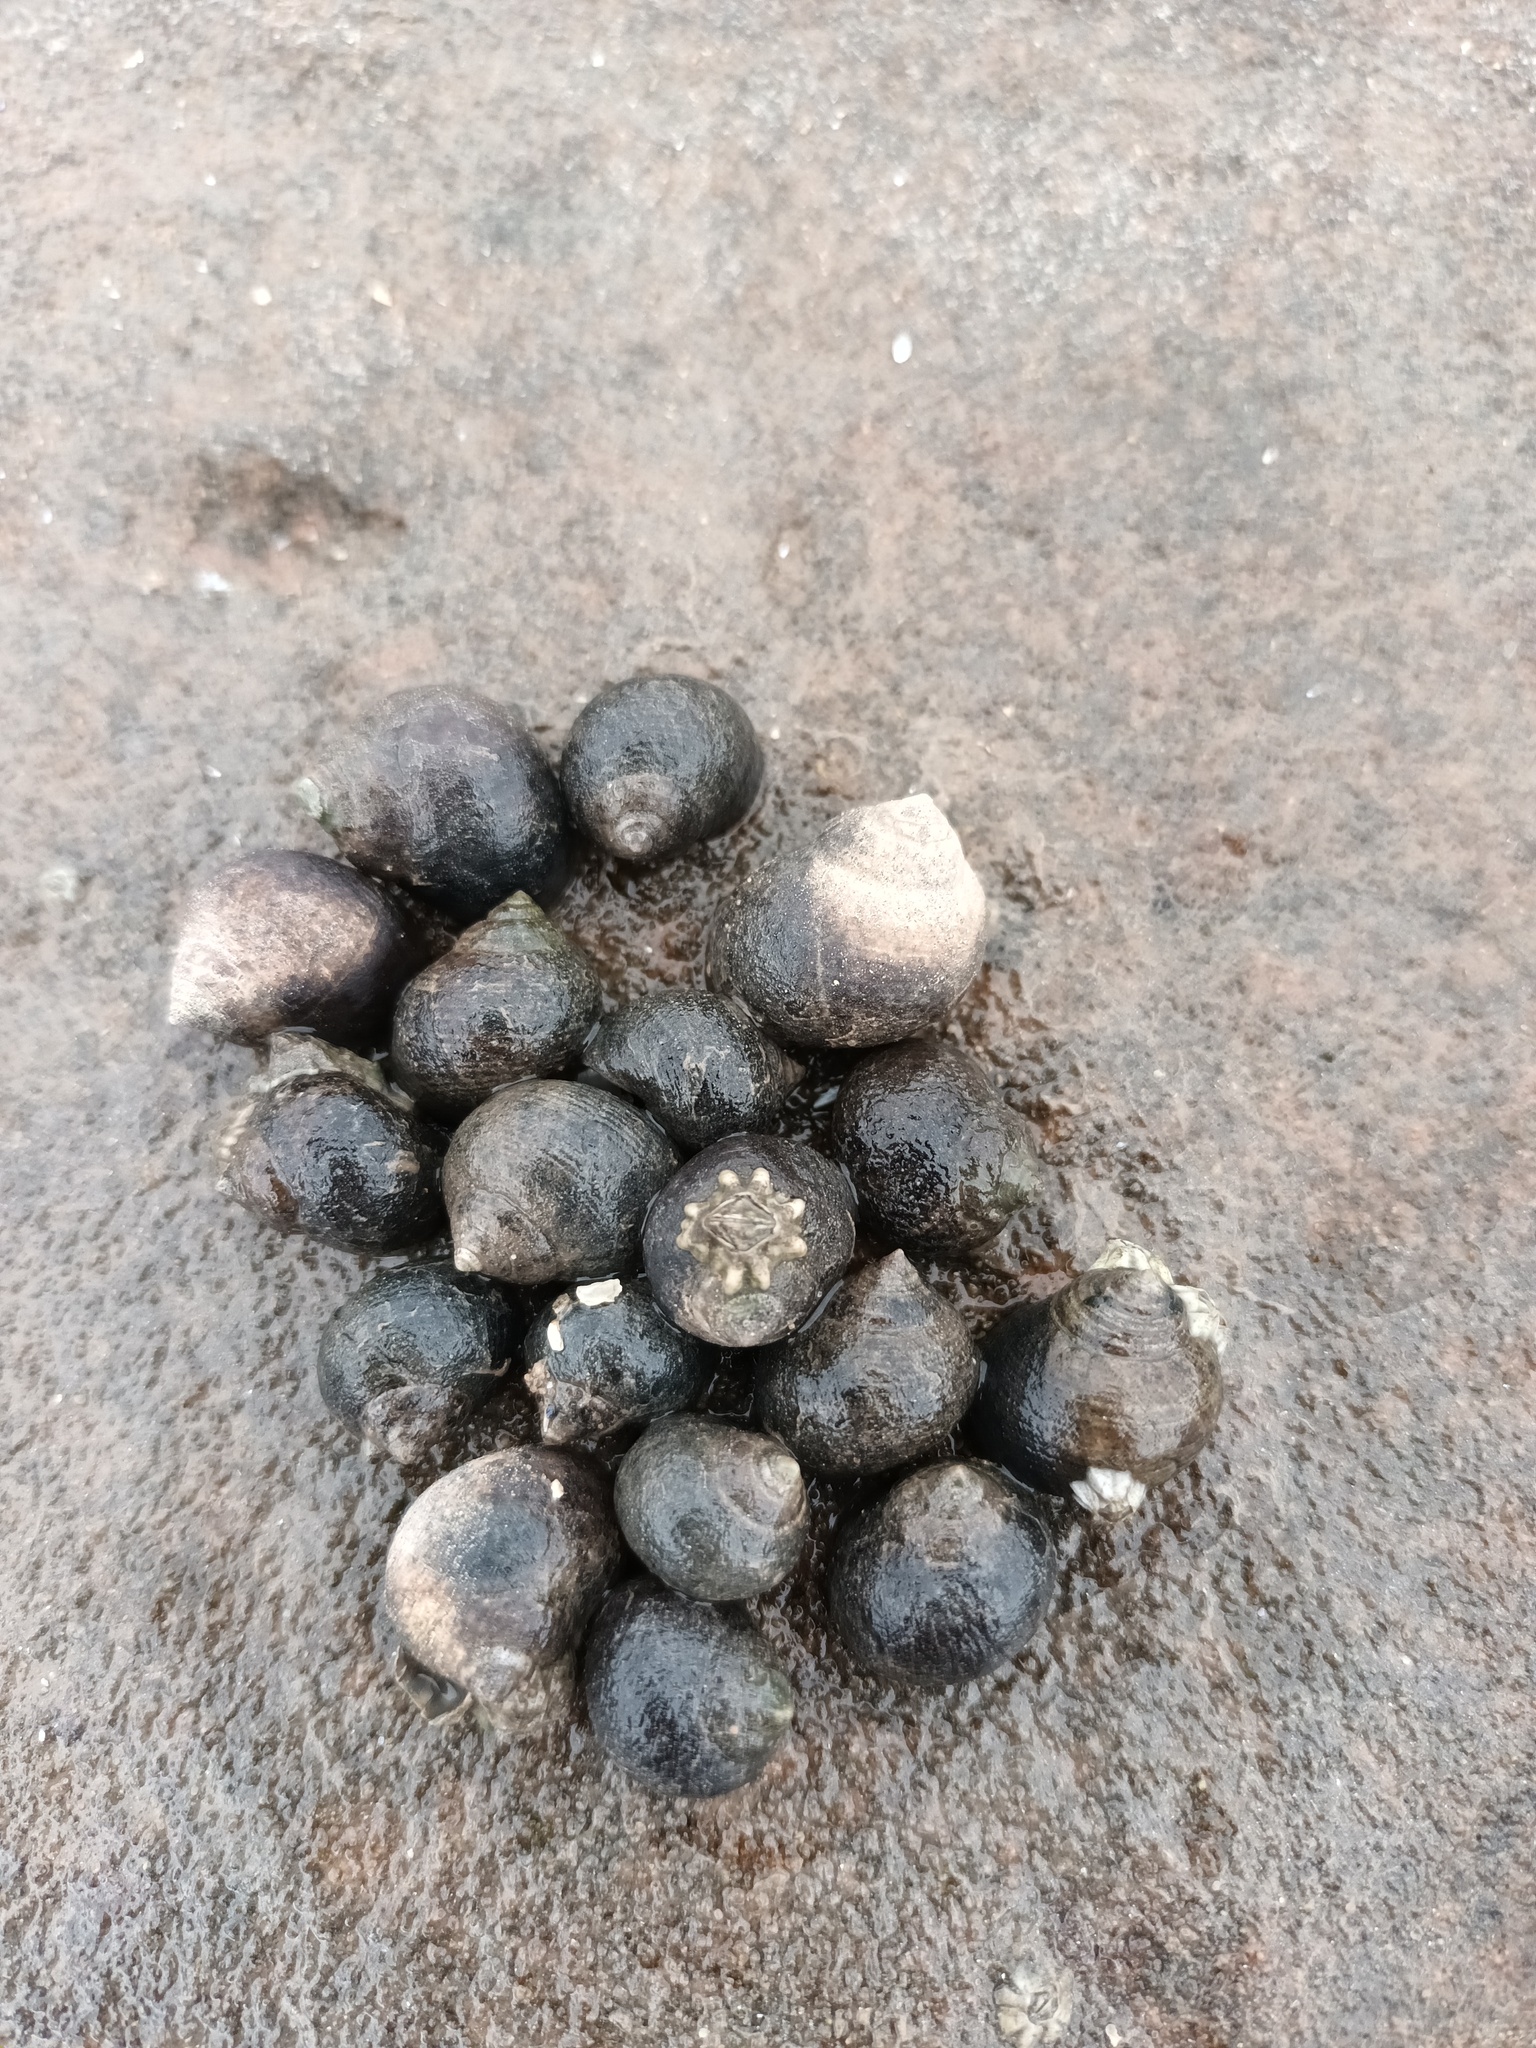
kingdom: Animalia
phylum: Mollusca
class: Gastropoda
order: Littorinimorpha
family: Littorinidae
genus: Littorina
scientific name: Littorina littorea
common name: Common periwinkle
